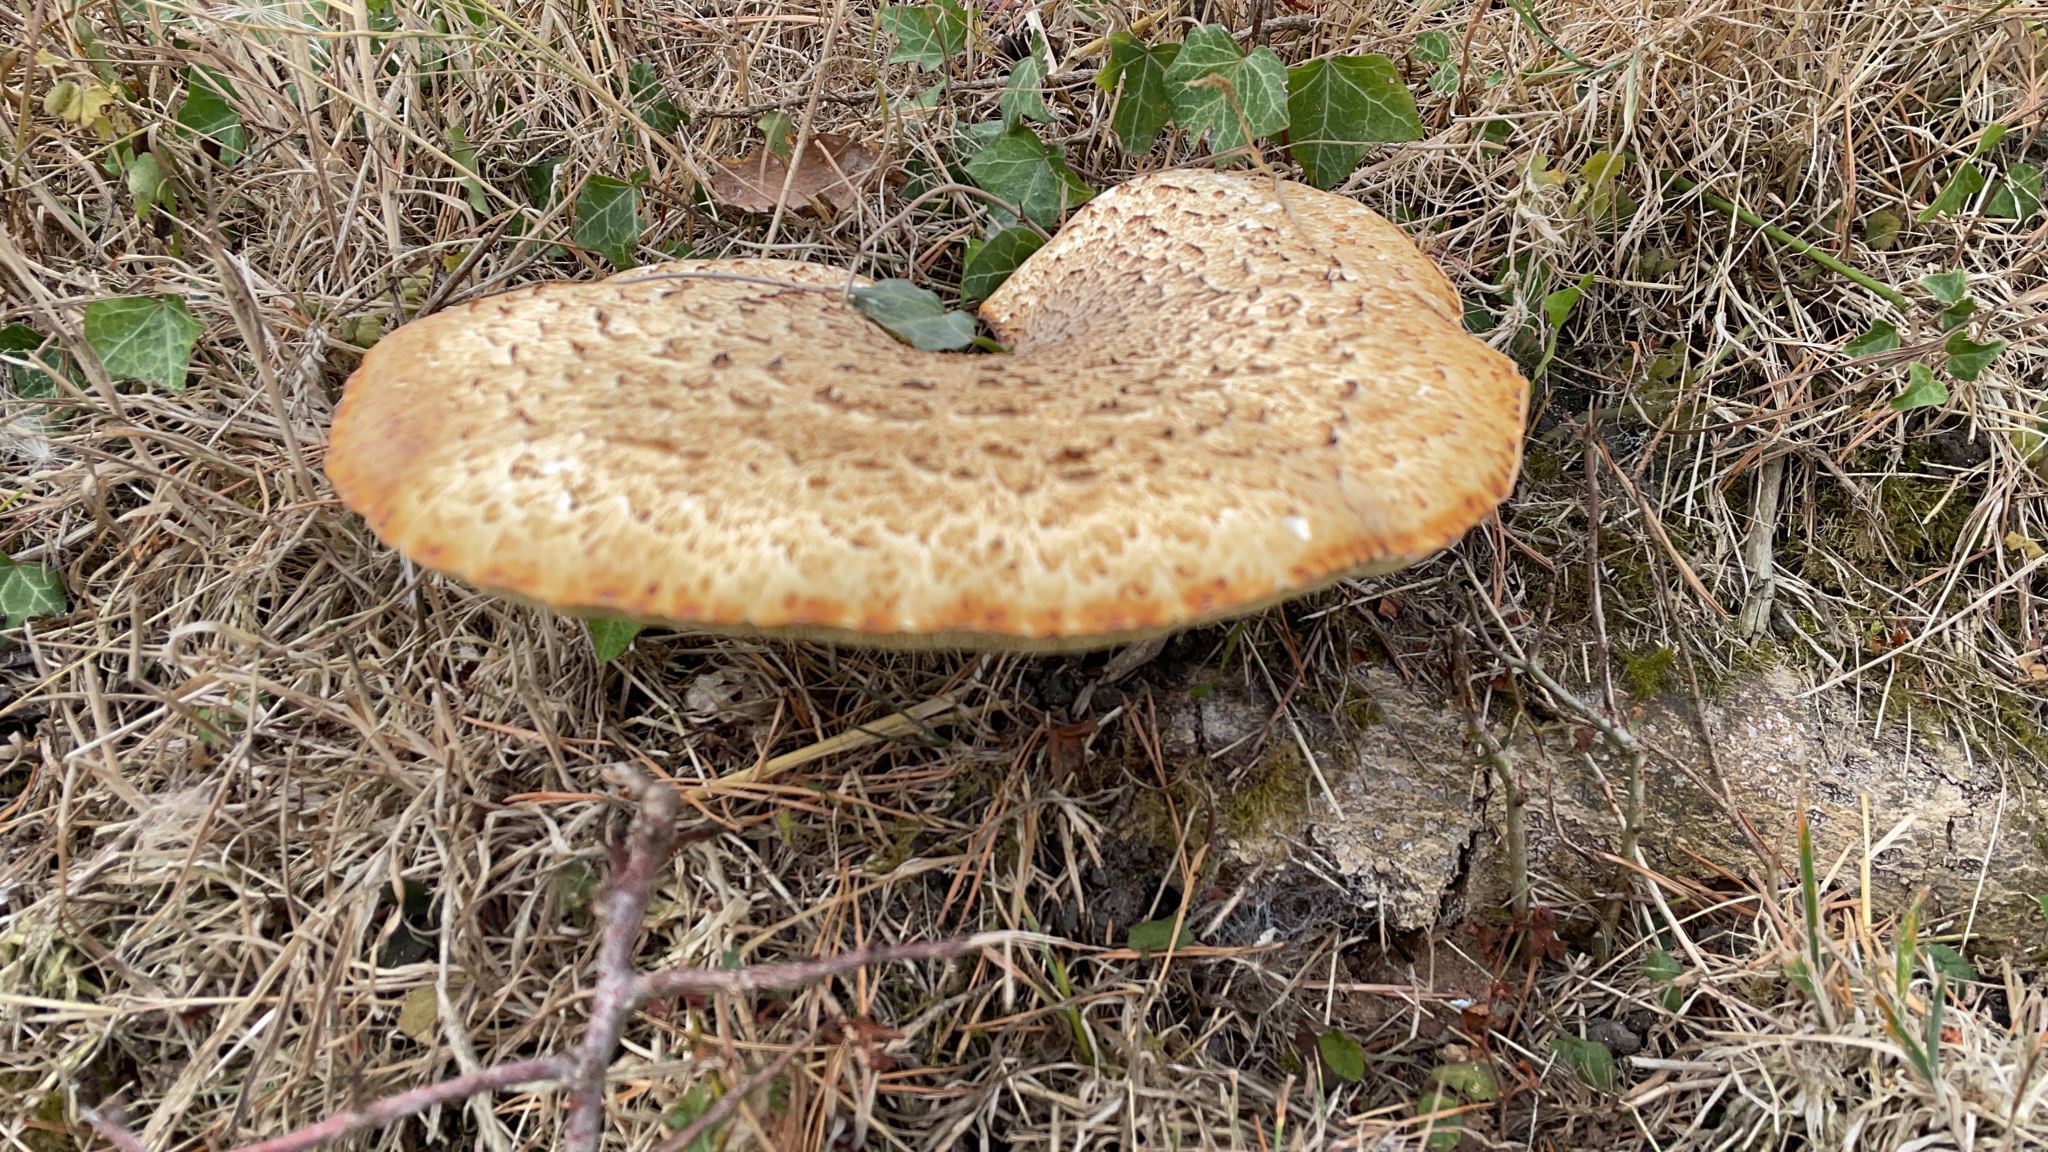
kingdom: Fungi
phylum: Basidiomycota
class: Agaricomycetes
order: Polyporales
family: Polyporaceae
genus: Cerioporus
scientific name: Cerioporus squamosus
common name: Dryad's saddle
